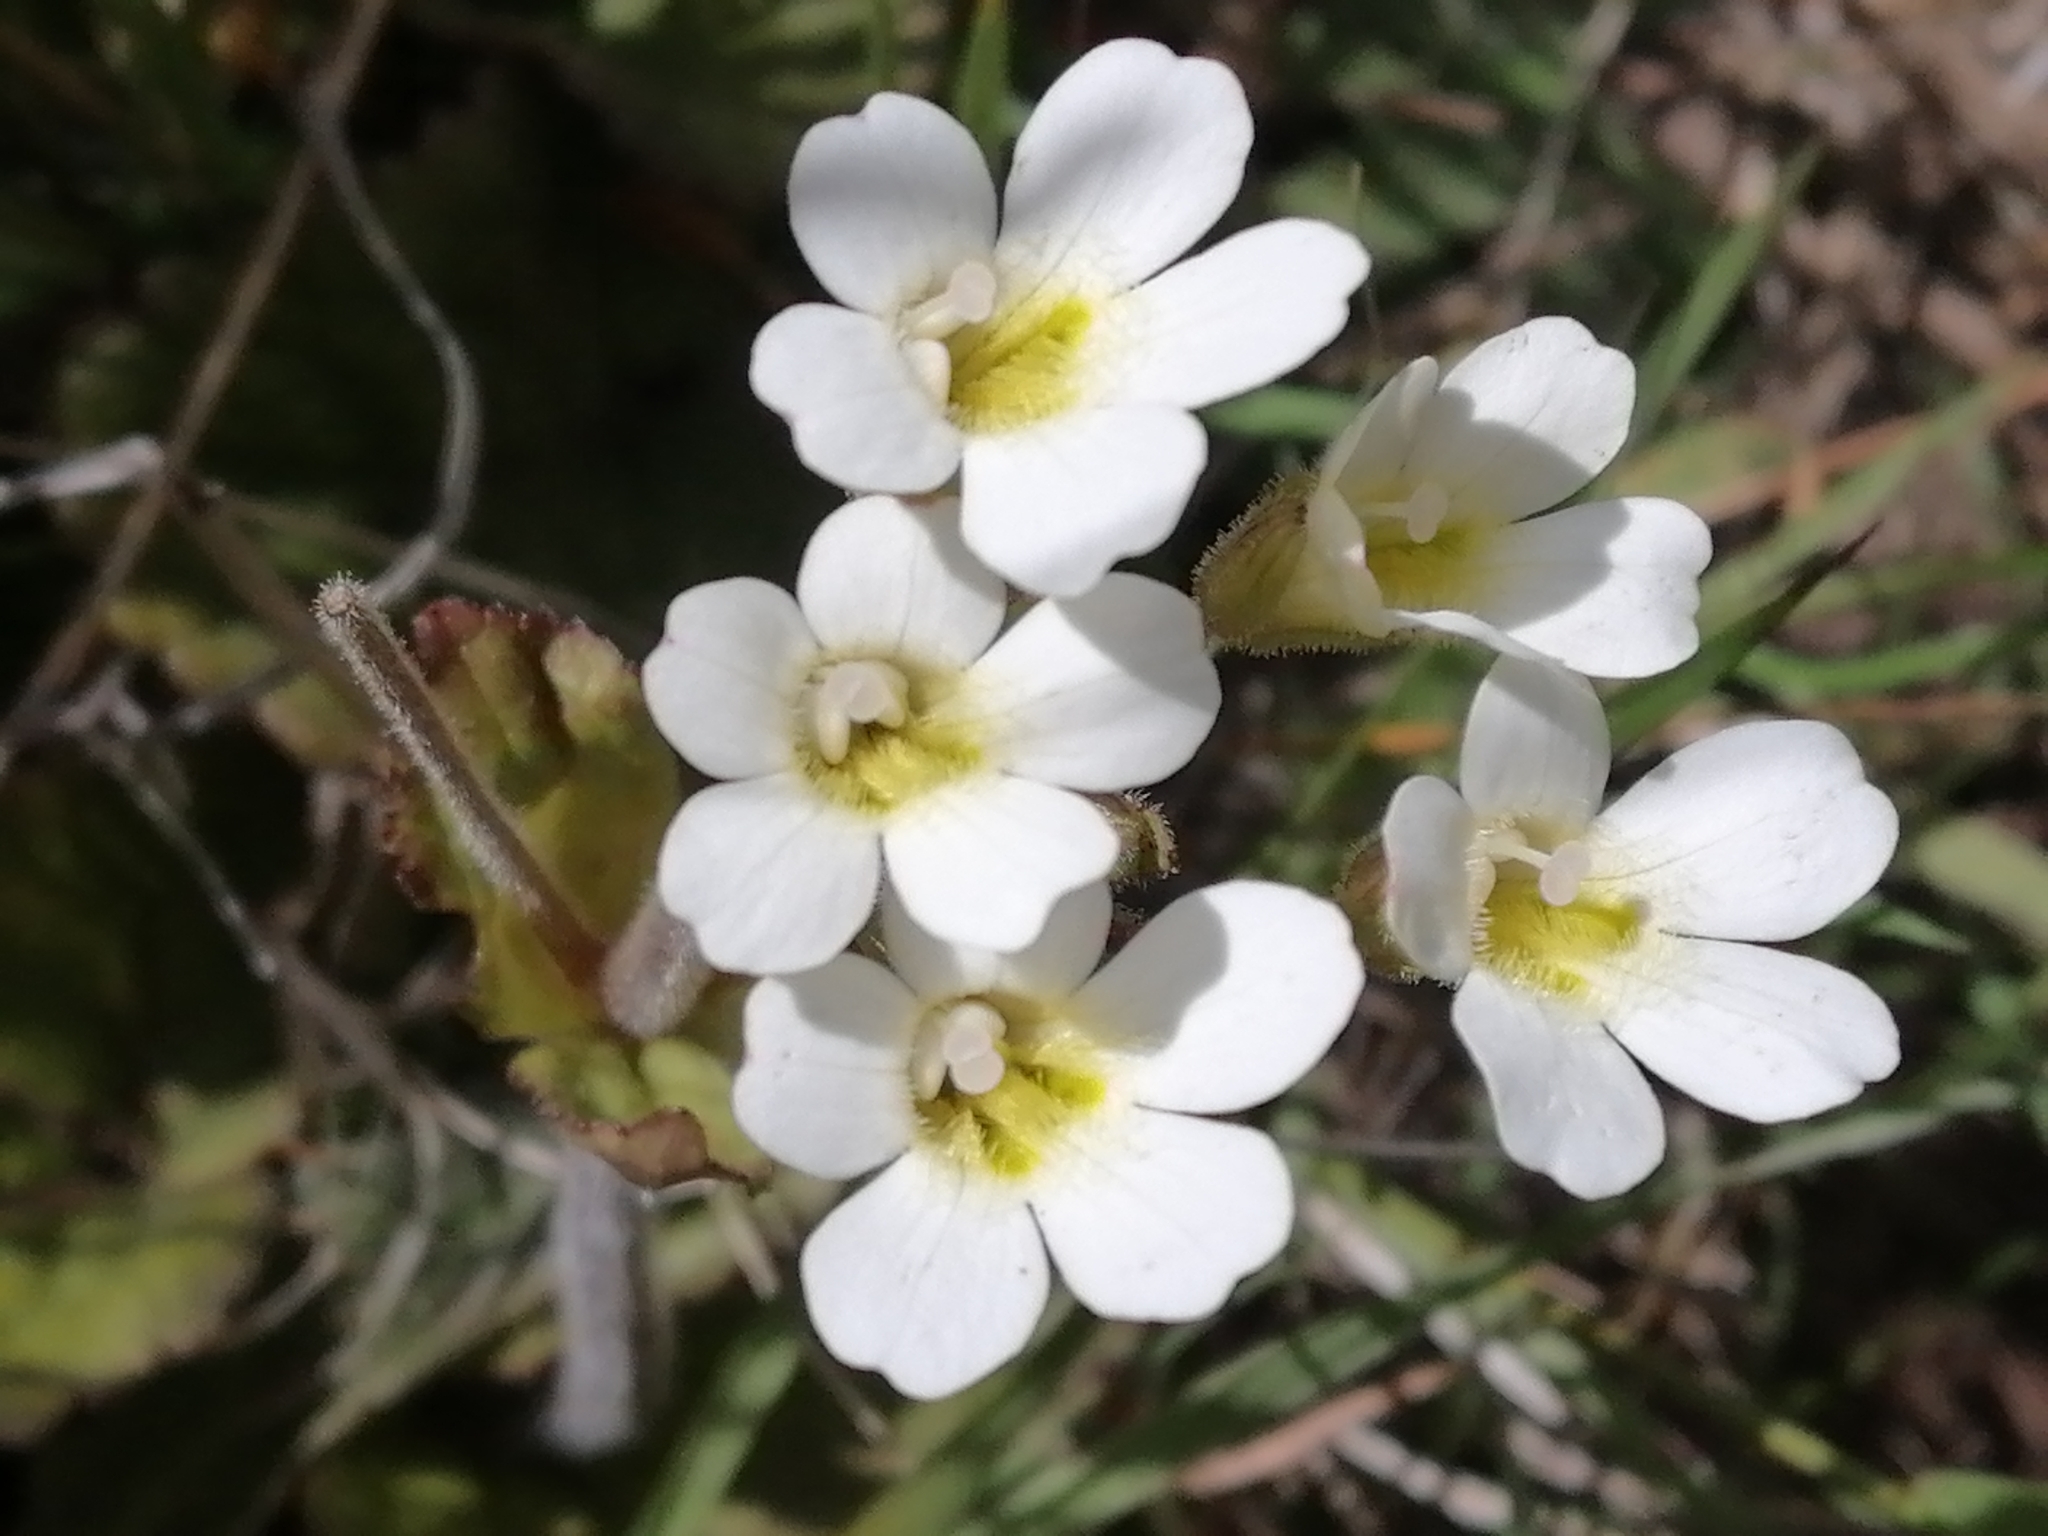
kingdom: Plantae
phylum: Tracheophyta
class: Magnoliopsida
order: Lamiales
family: Plantaginaceae
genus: Ourisia
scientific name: Ourisia macrophylla
